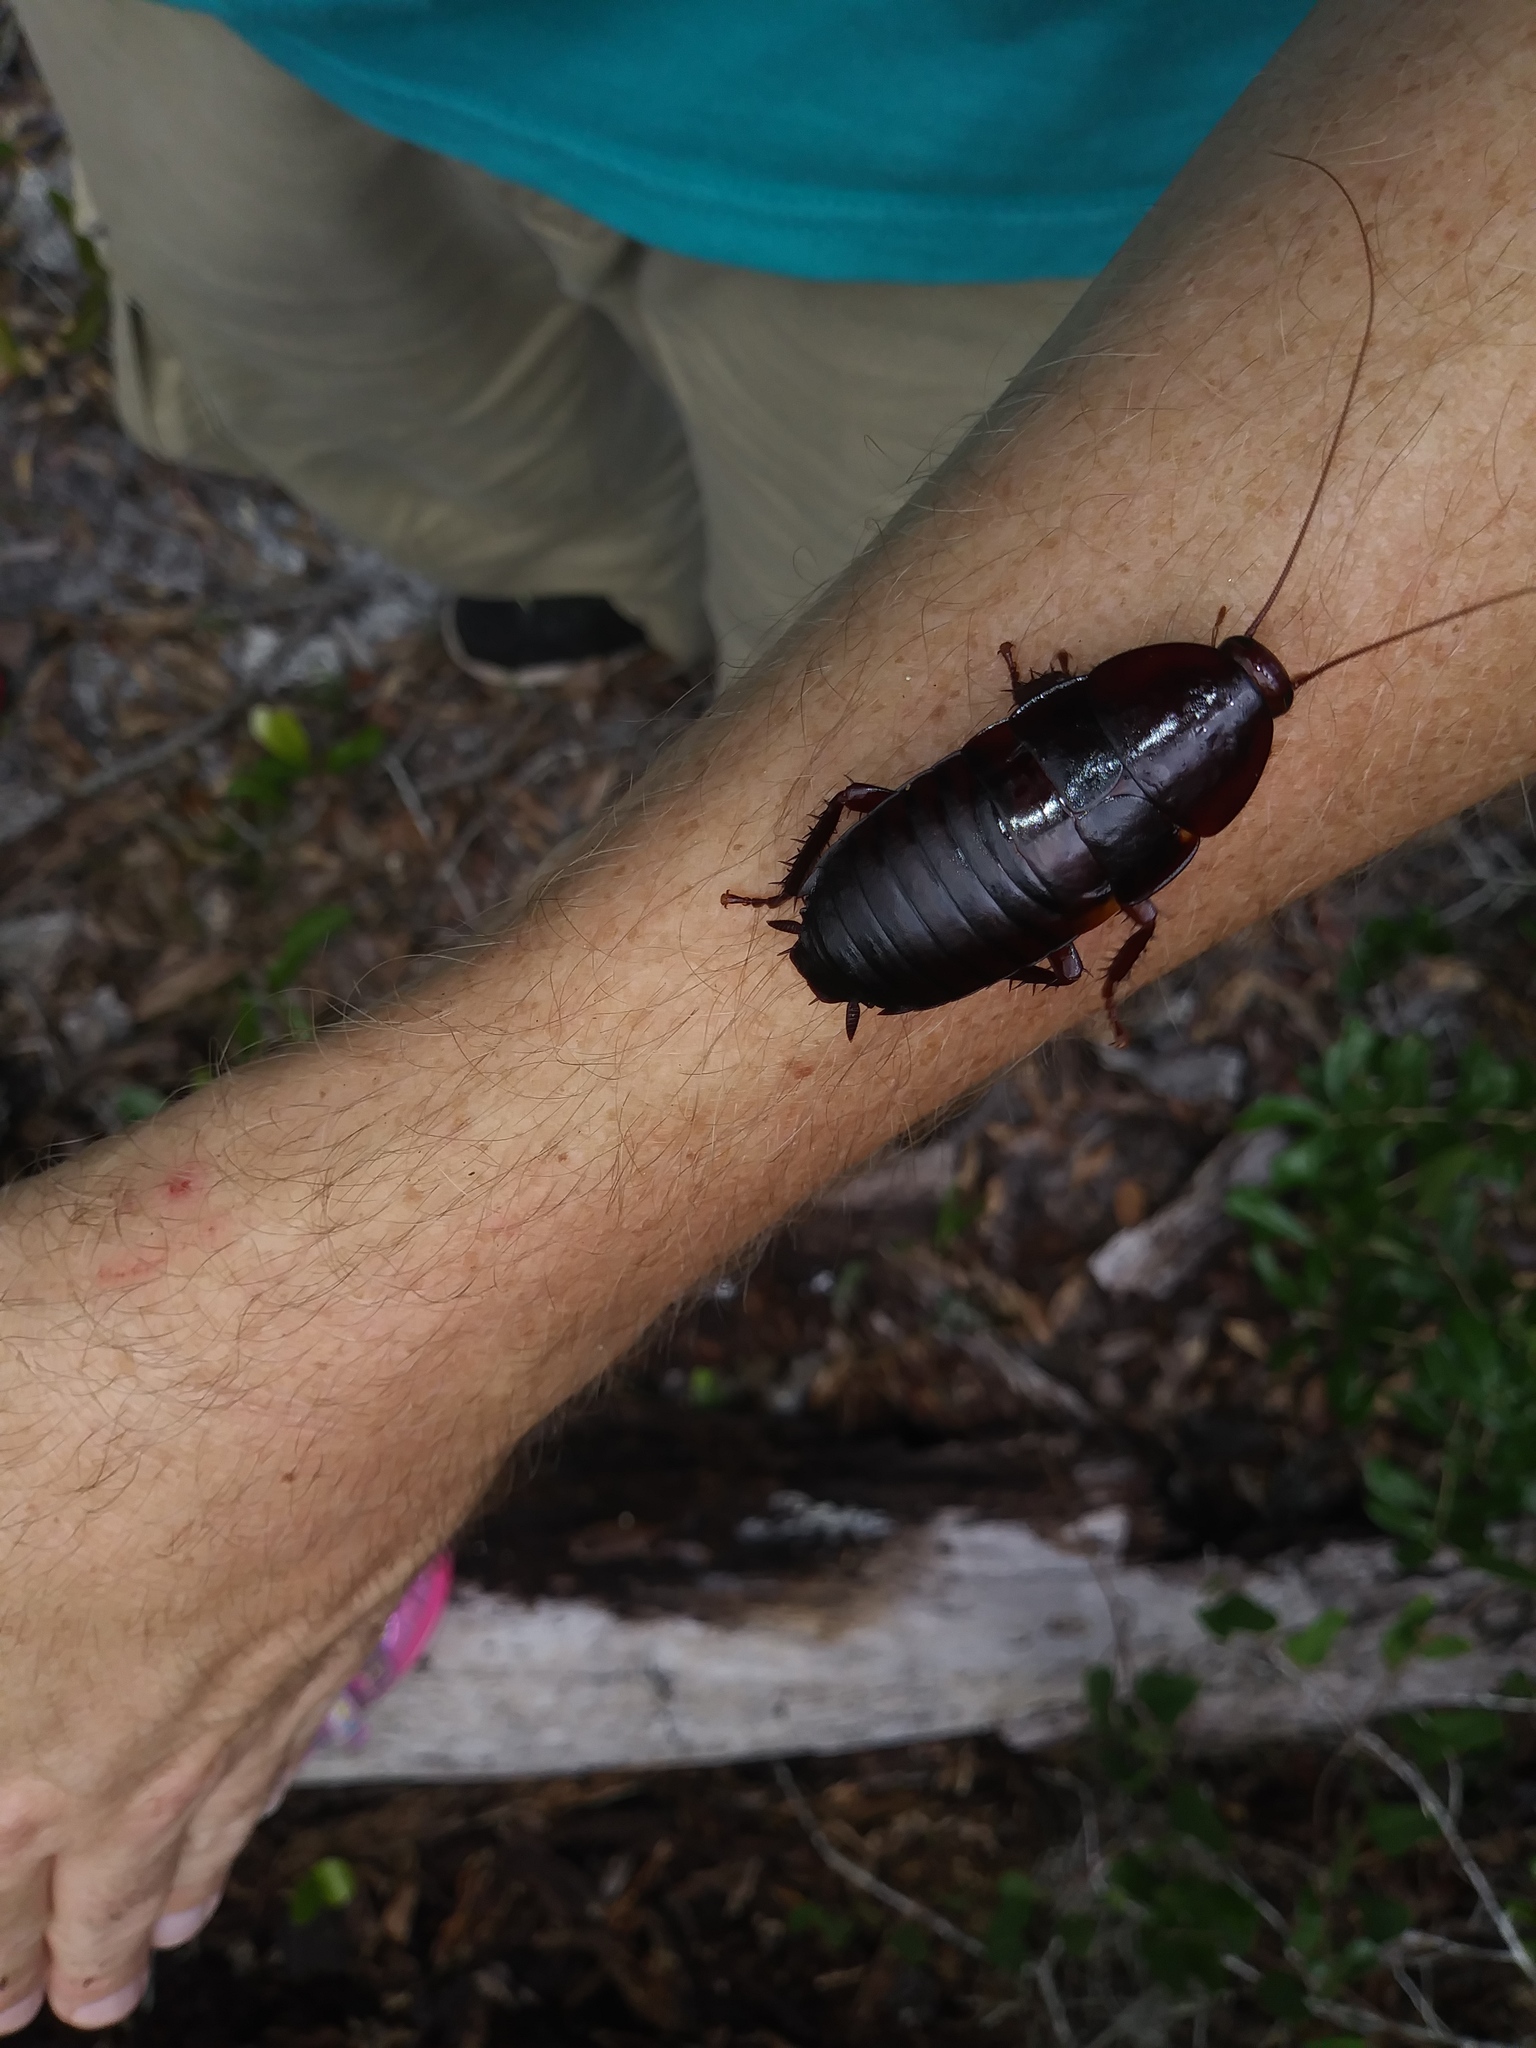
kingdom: Animalia
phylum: Arthropoda
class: Insecta
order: Blattodea
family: Blattidae
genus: Eurycotis
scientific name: Eurycotis floridana
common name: Florida cockroach
